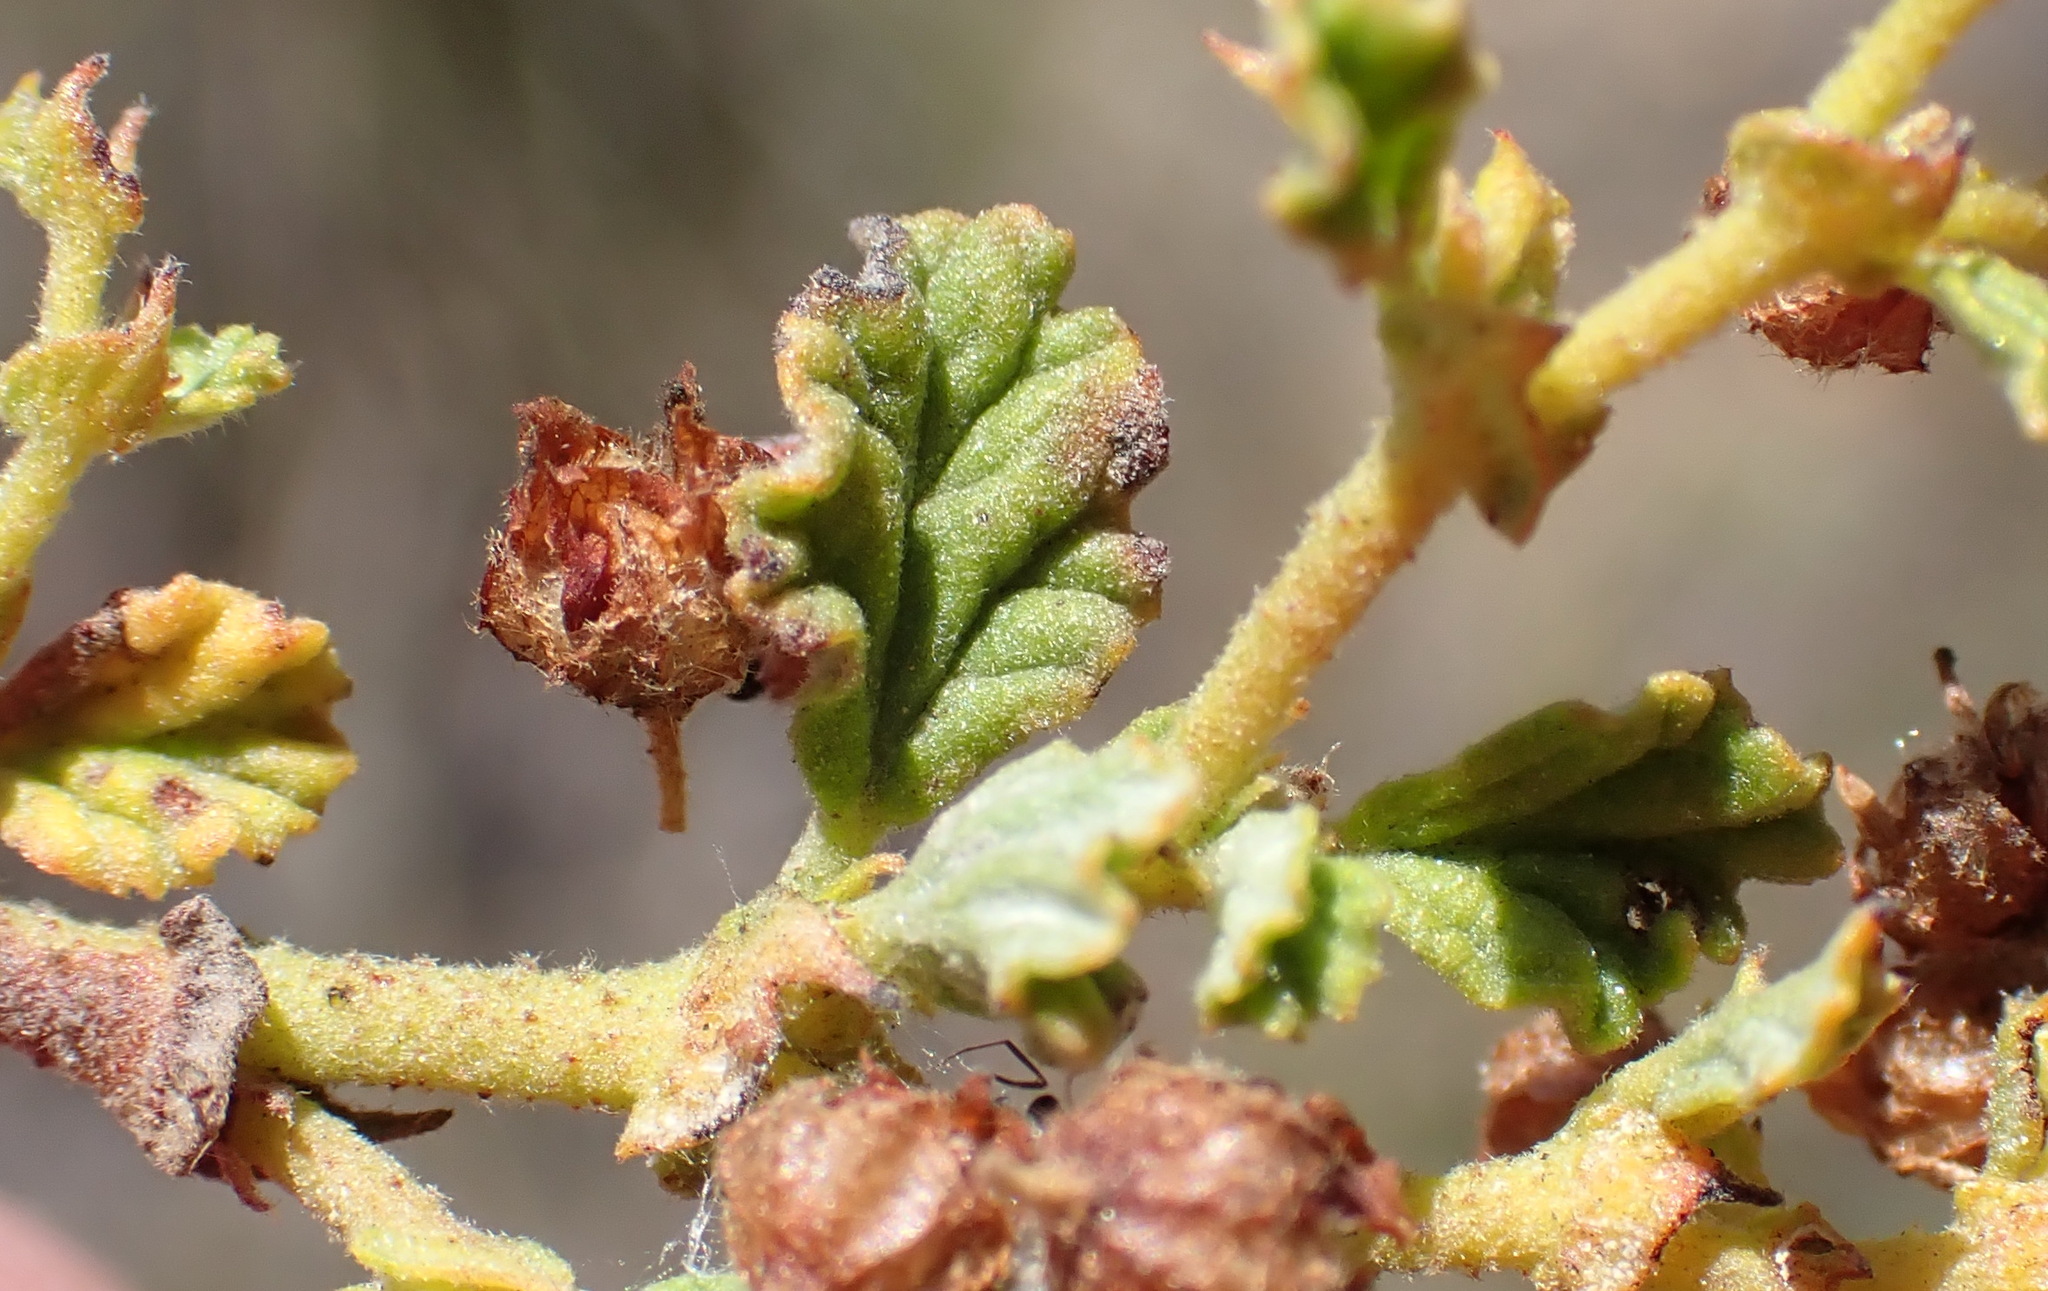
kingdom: Plantae
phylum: Tracheophyta
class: Magnoliopsida
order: Malvales
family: Malvaceae
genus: Hermannia
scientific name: Hermannia
